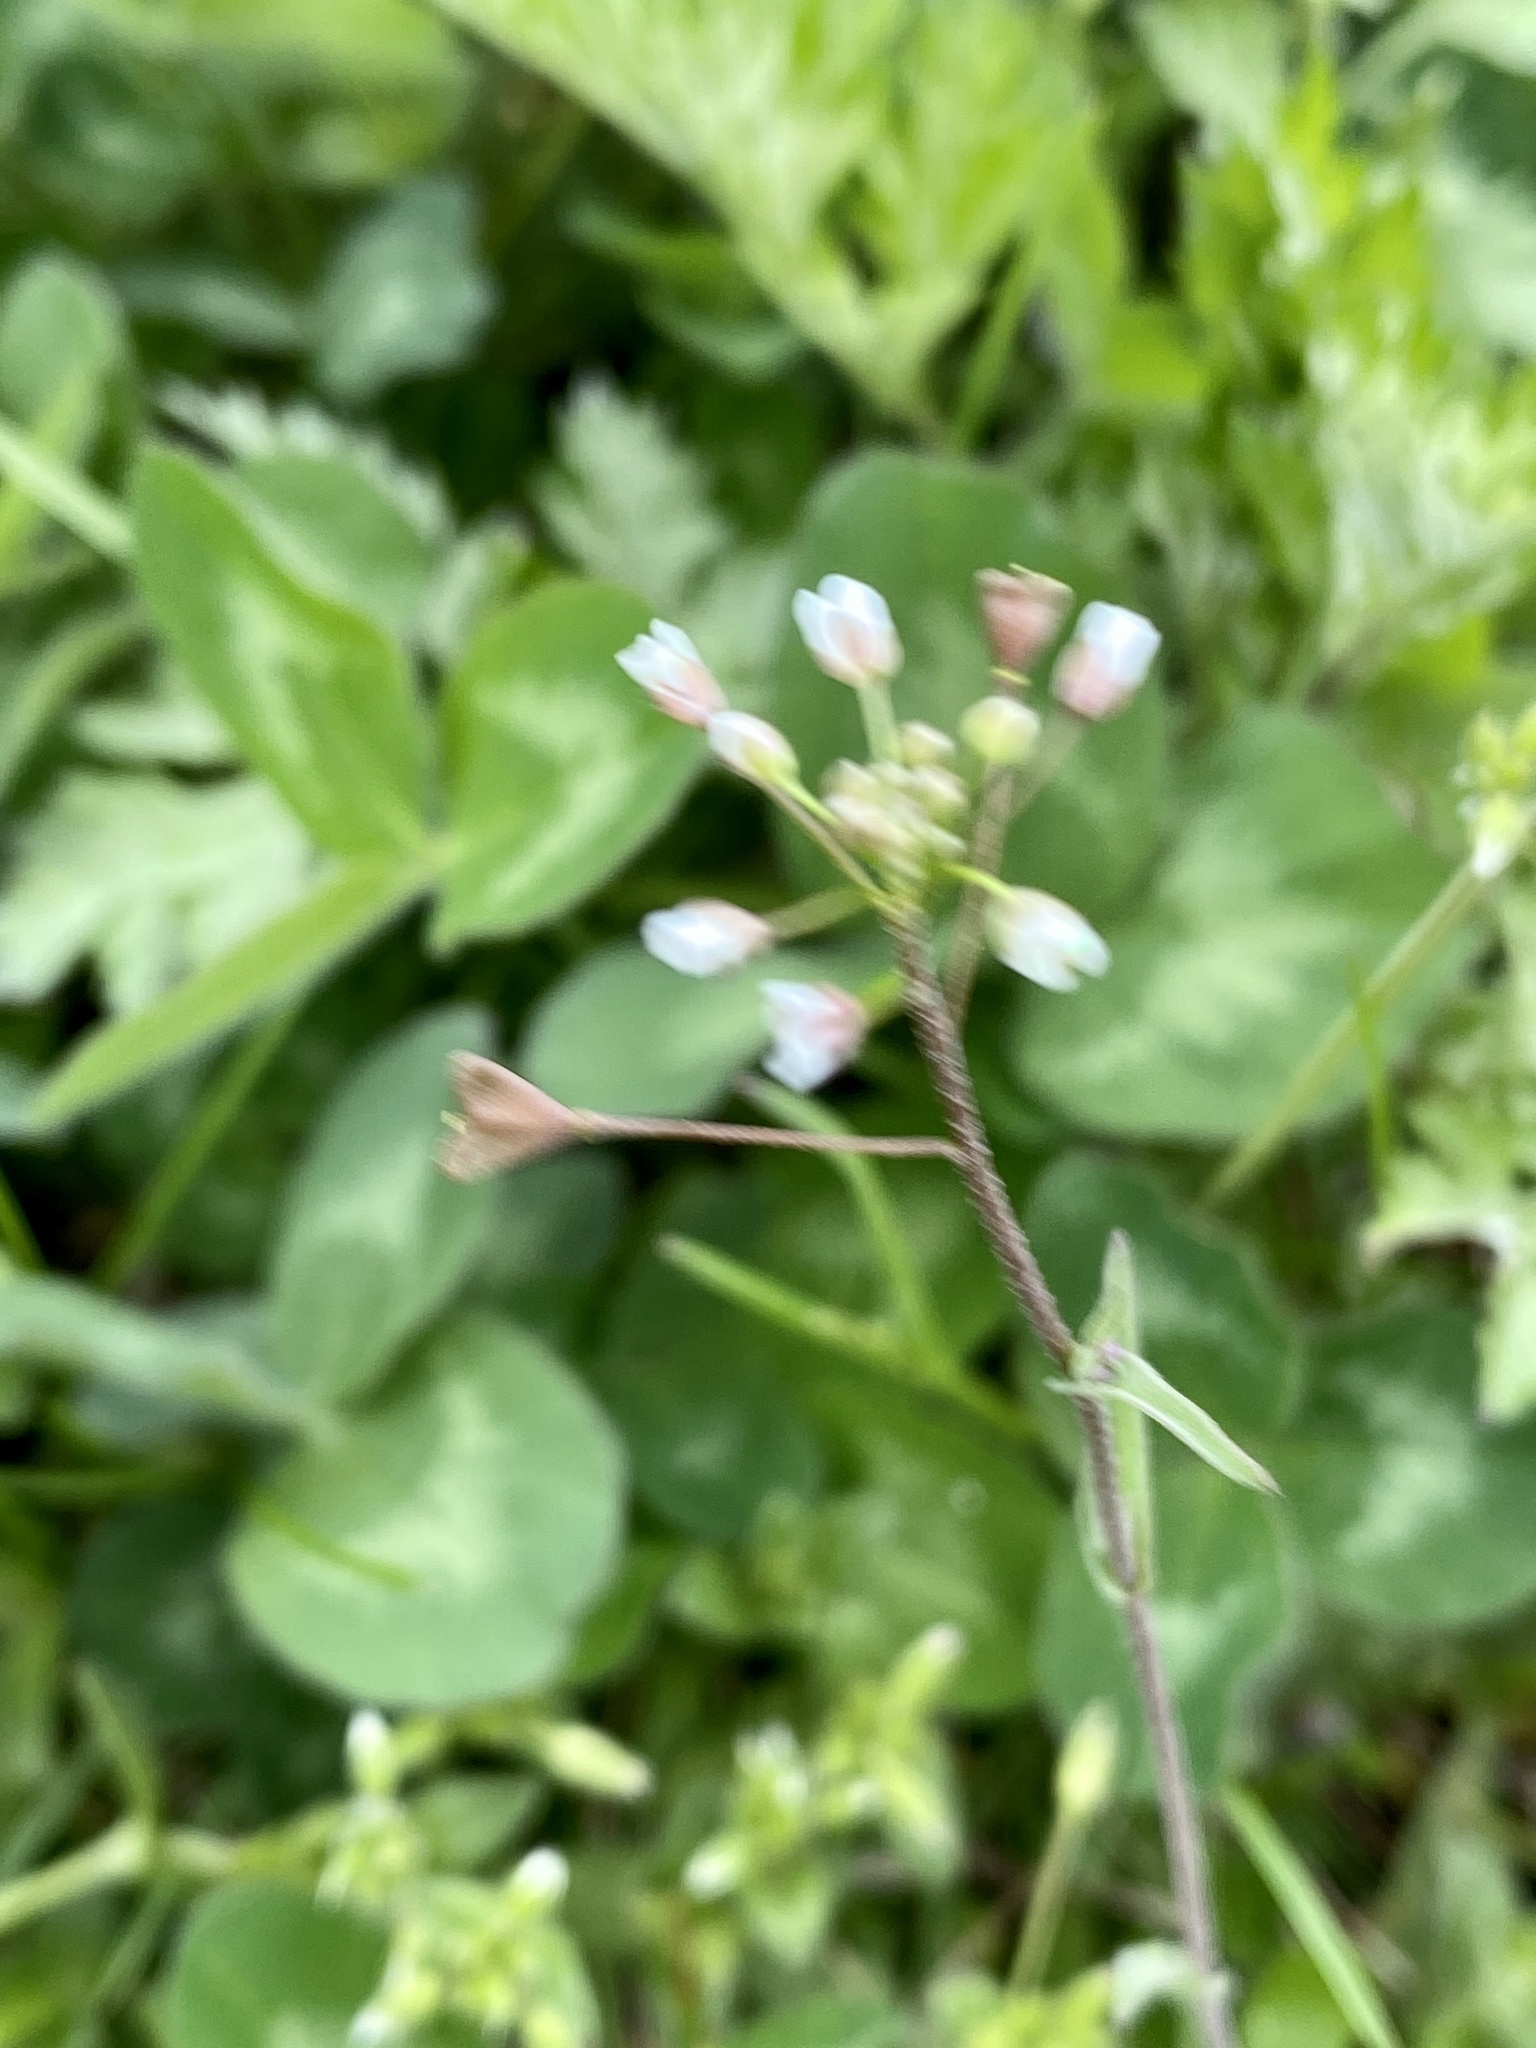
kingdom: Plantae
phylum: Tracheophyta
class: Magnoliopsida
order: Brassicales
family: Brassicaceae
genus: Capsella
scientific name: Capsella bursa-pastoris
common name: Shepherd's purse
